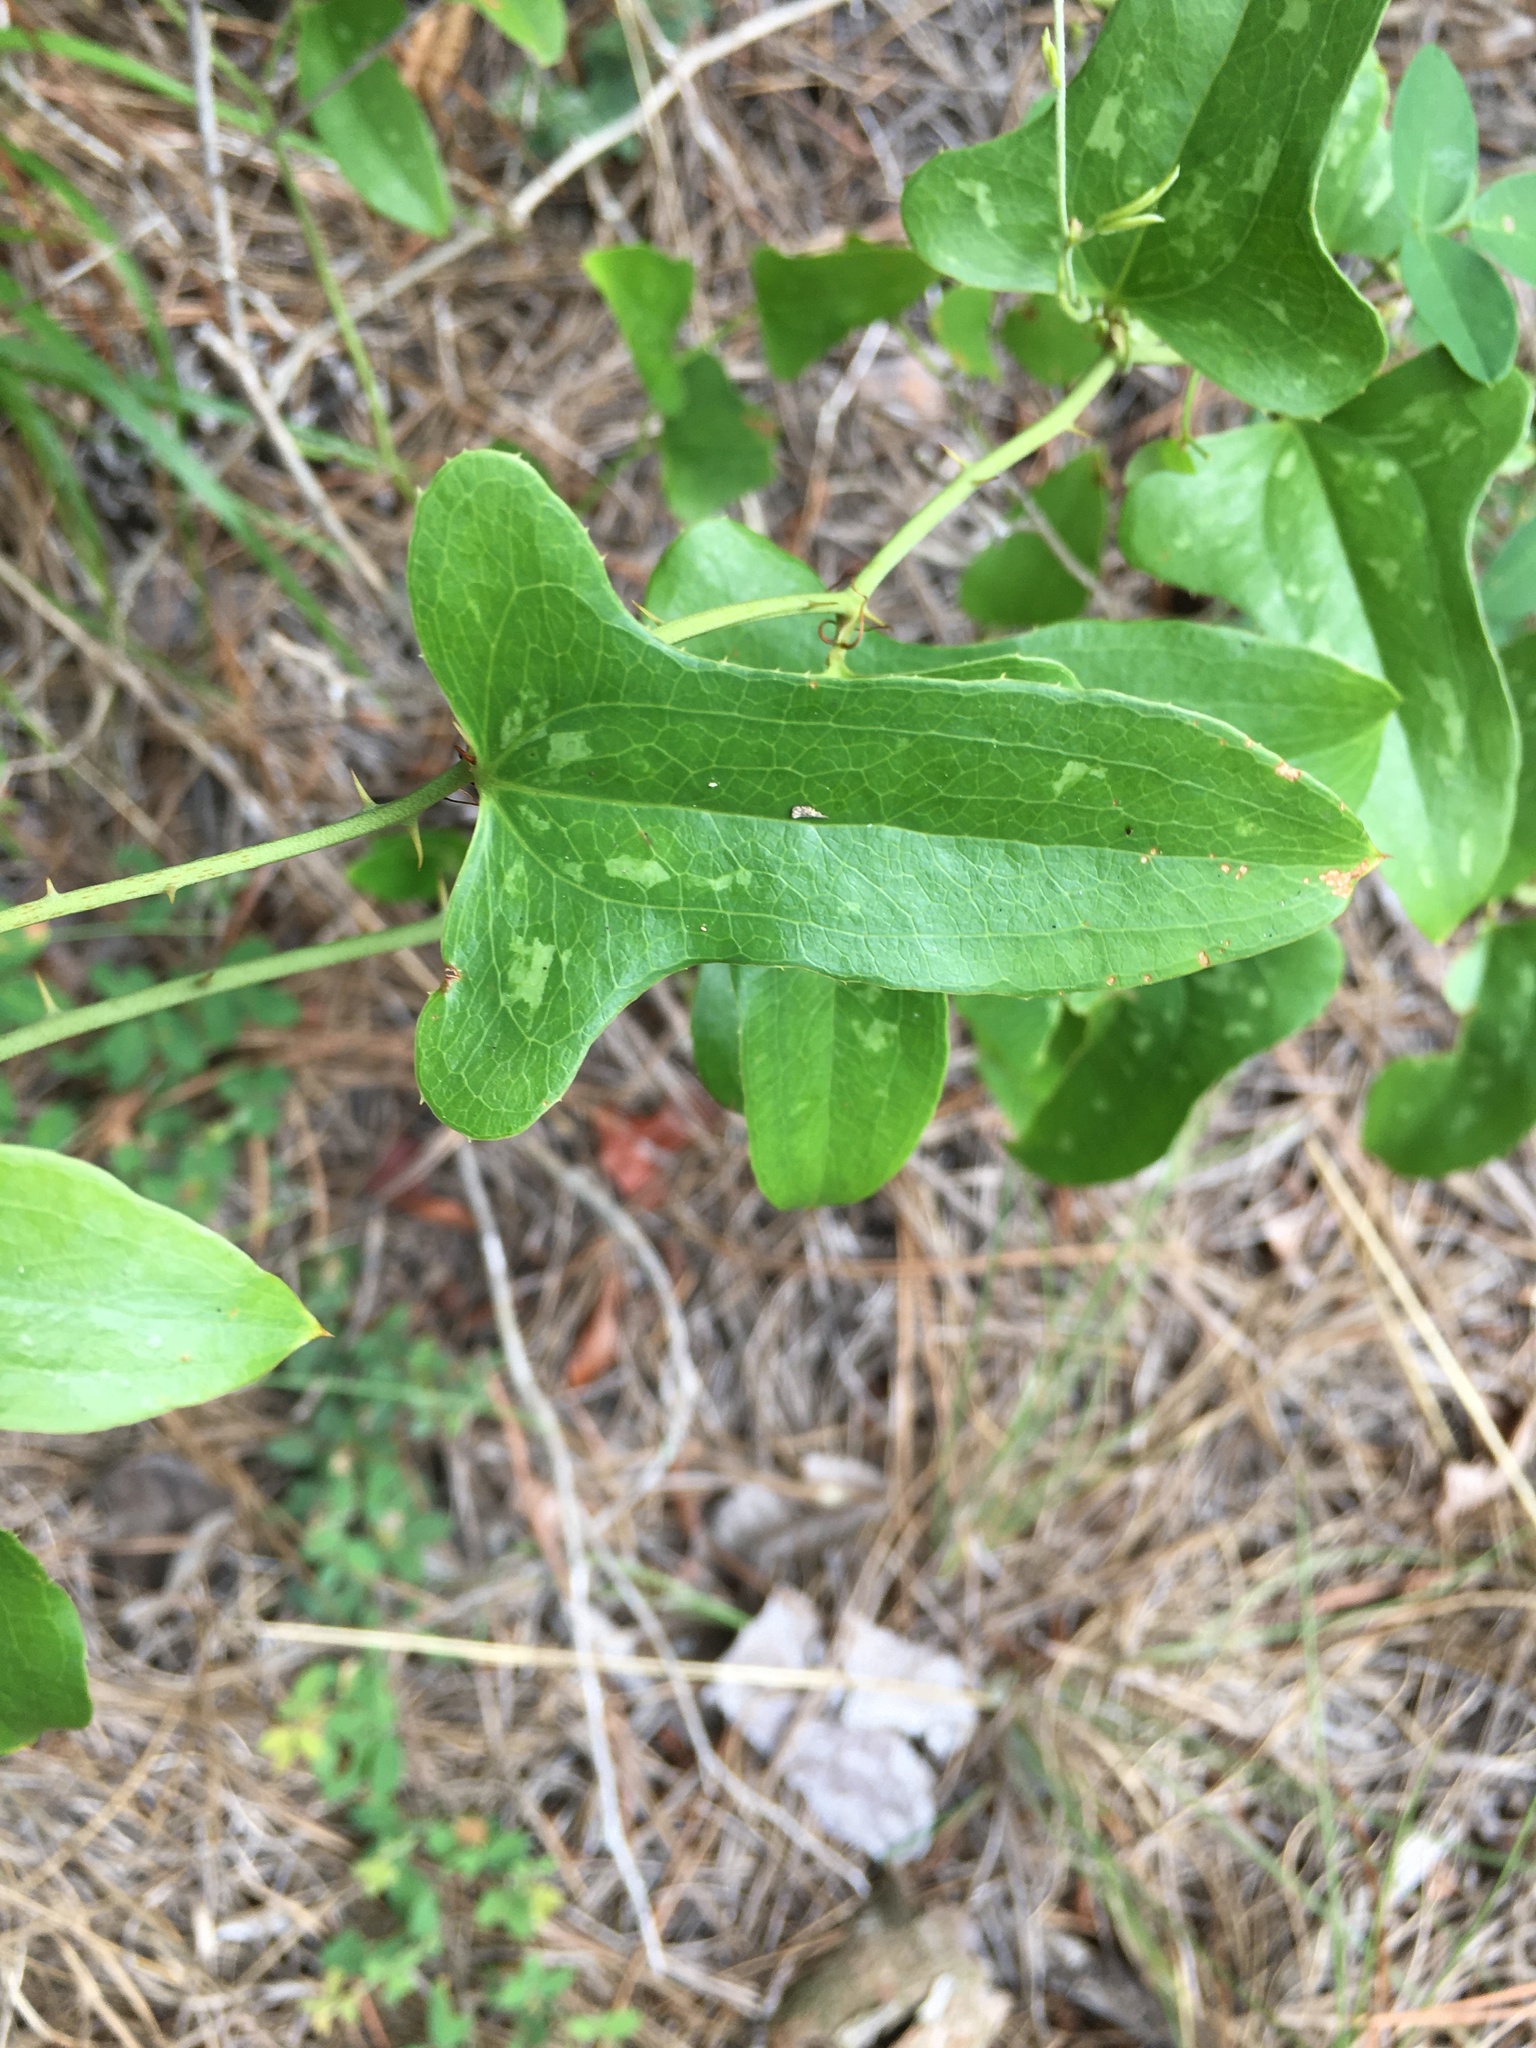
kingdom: Plantae
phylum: Tracheophyta
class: Liliopsida
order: Liliales
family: Smilacaceae
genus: Smilax
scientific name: Smilax bona-nox
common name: Catbrier
